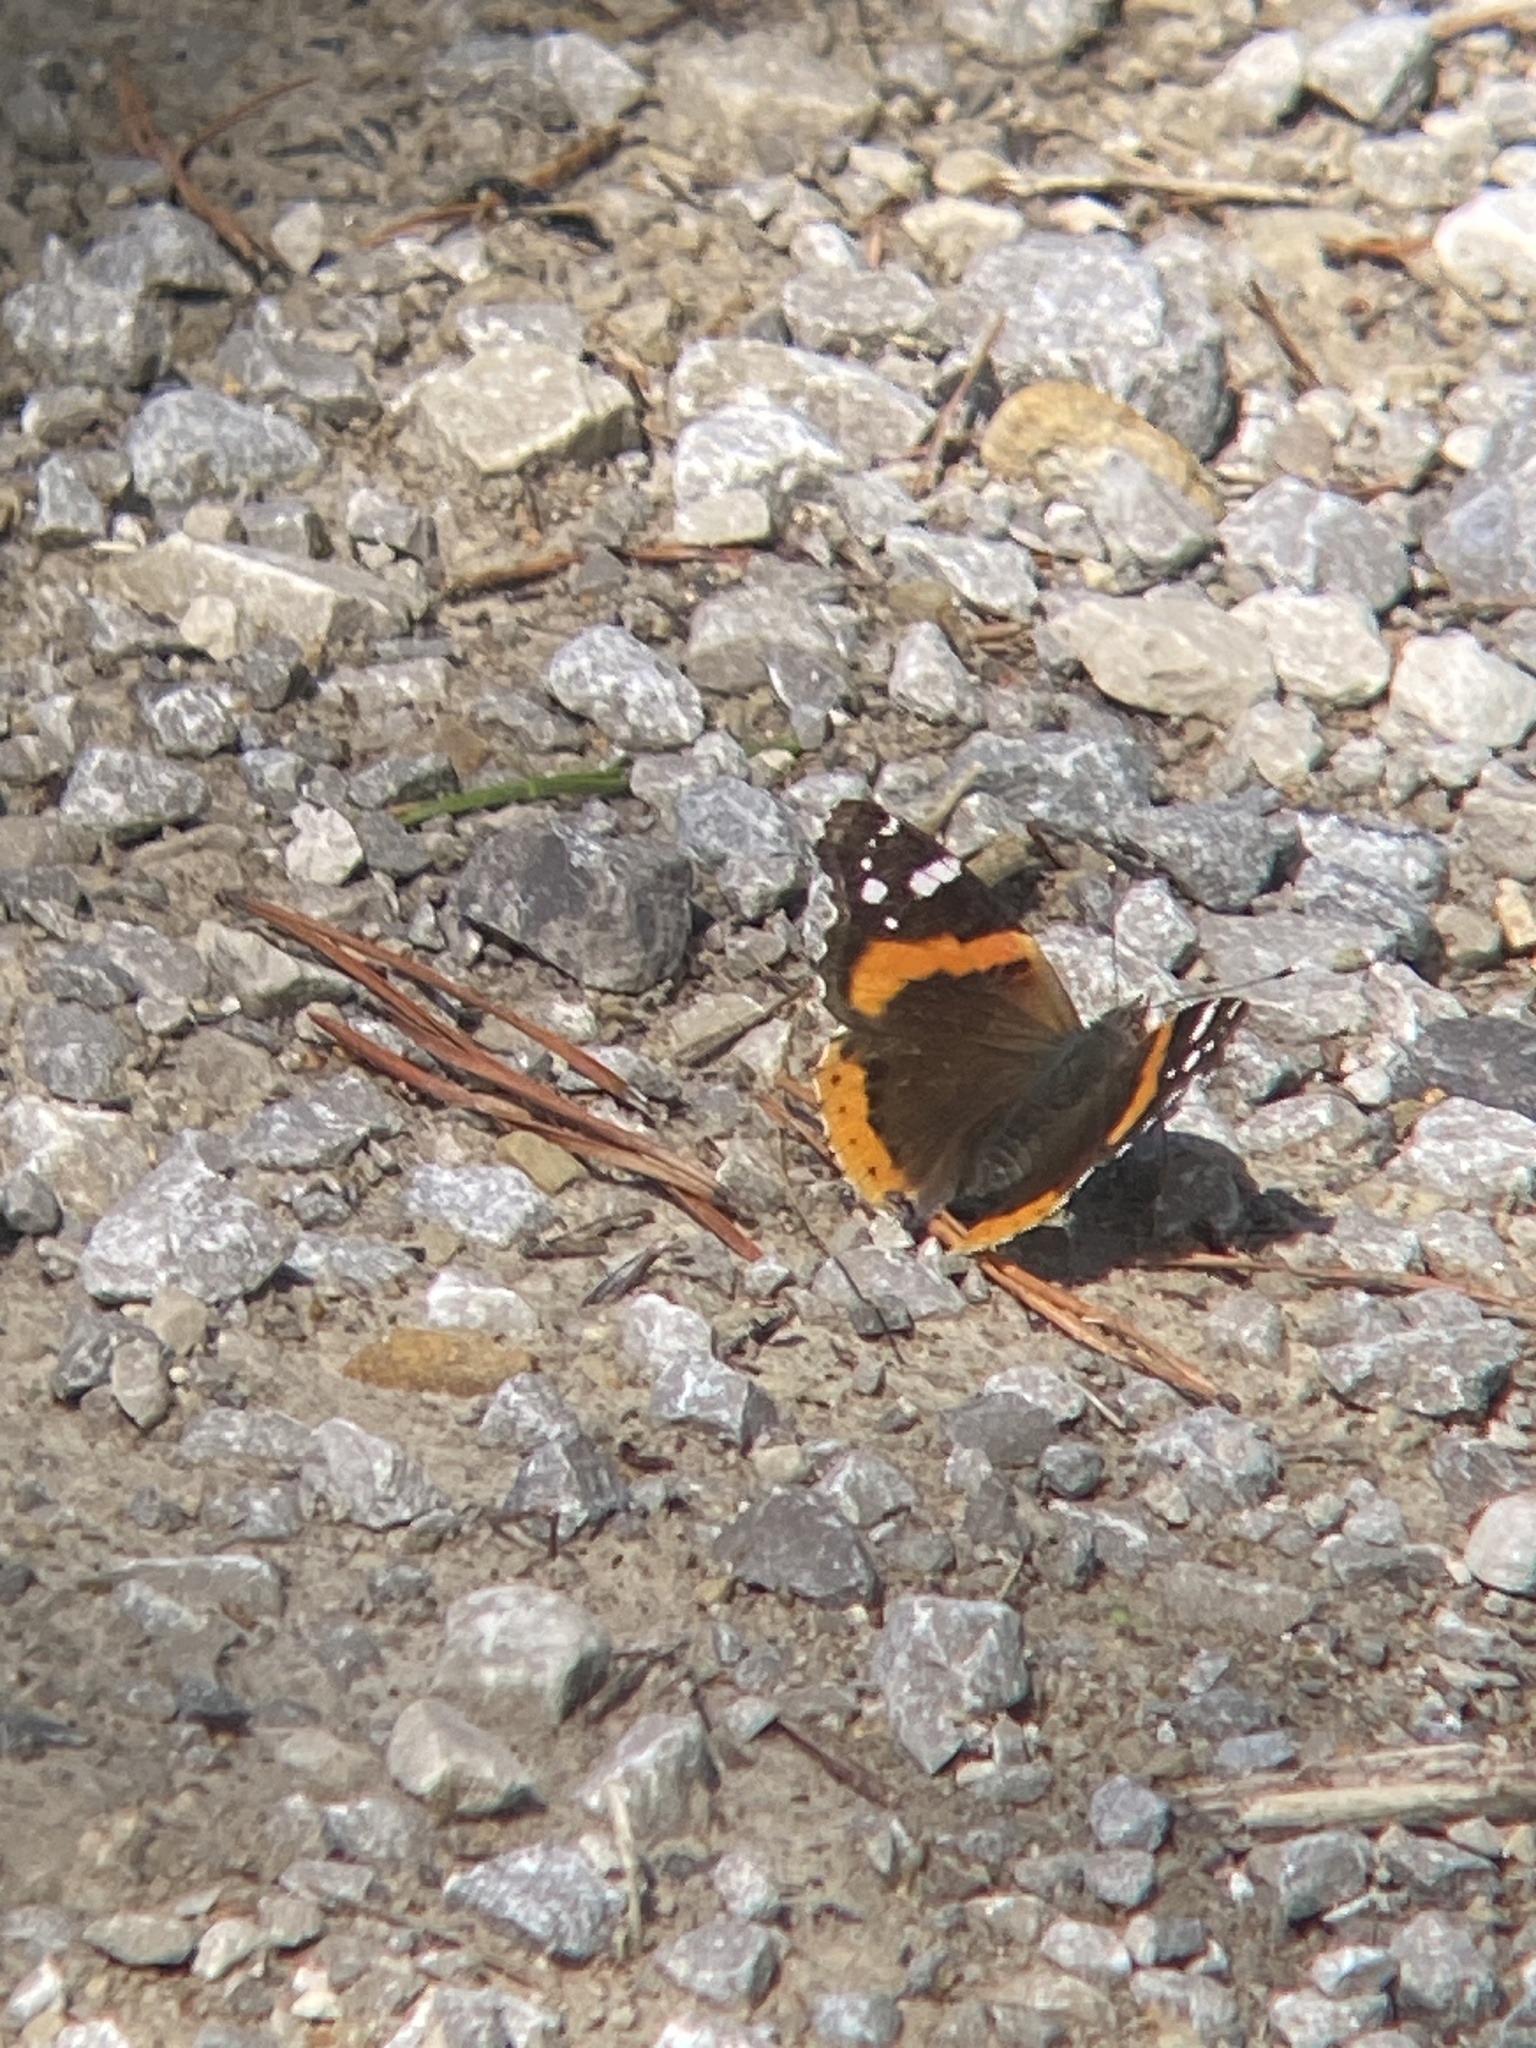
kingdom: Animalia
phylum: Arthropoda
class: Insecta
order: Lepidoptera
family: Nymphalidae
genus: Vanessa
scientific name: Vanessa atalanta
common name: Red admiral
